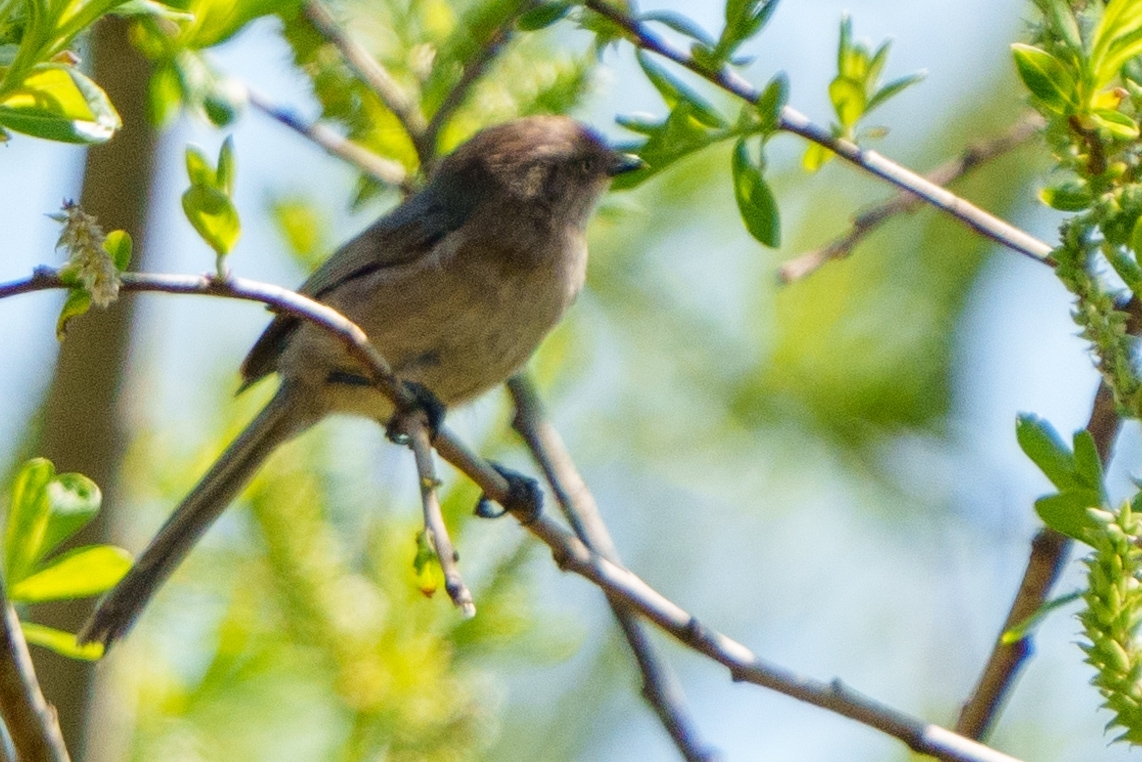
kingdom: Animalia
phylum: Chordata
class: Aves
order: Passeriformes
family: Aegithalidae
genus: Psaltriparus
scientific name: Psaltriparus minimus
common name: American bushtit
